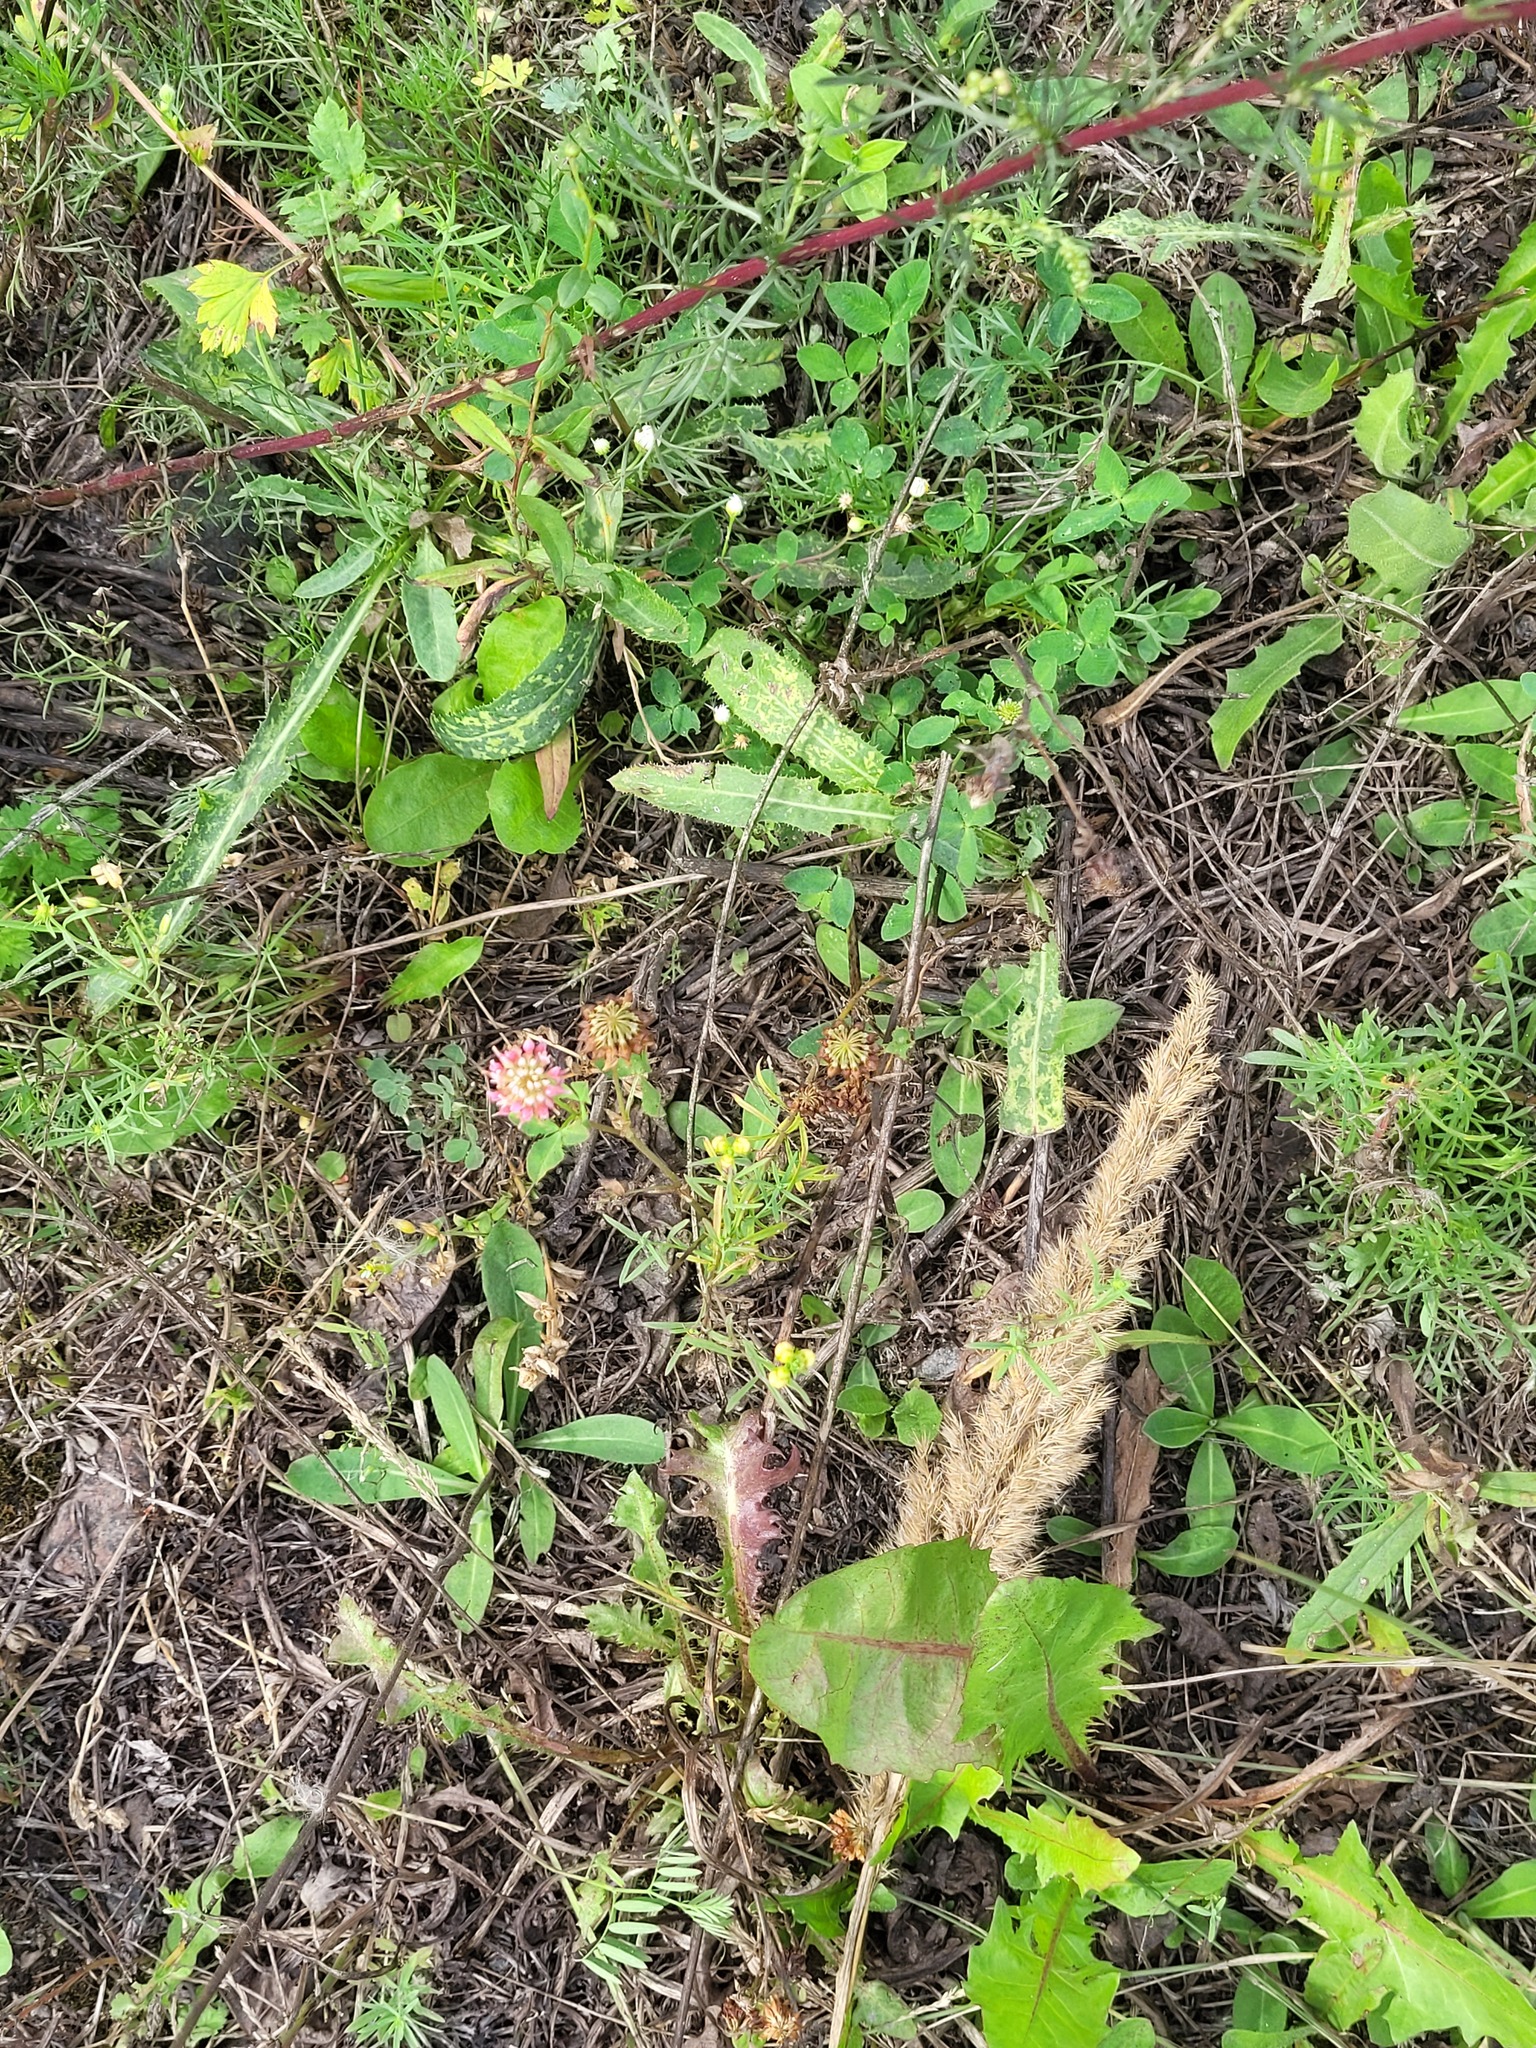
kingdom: Plantae
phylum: Tracheophyta
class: Magnoliopsida
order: Fabales
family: Fabaceae
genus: Trifolium
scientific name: Trifolium hybridum
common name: Alsike clover
